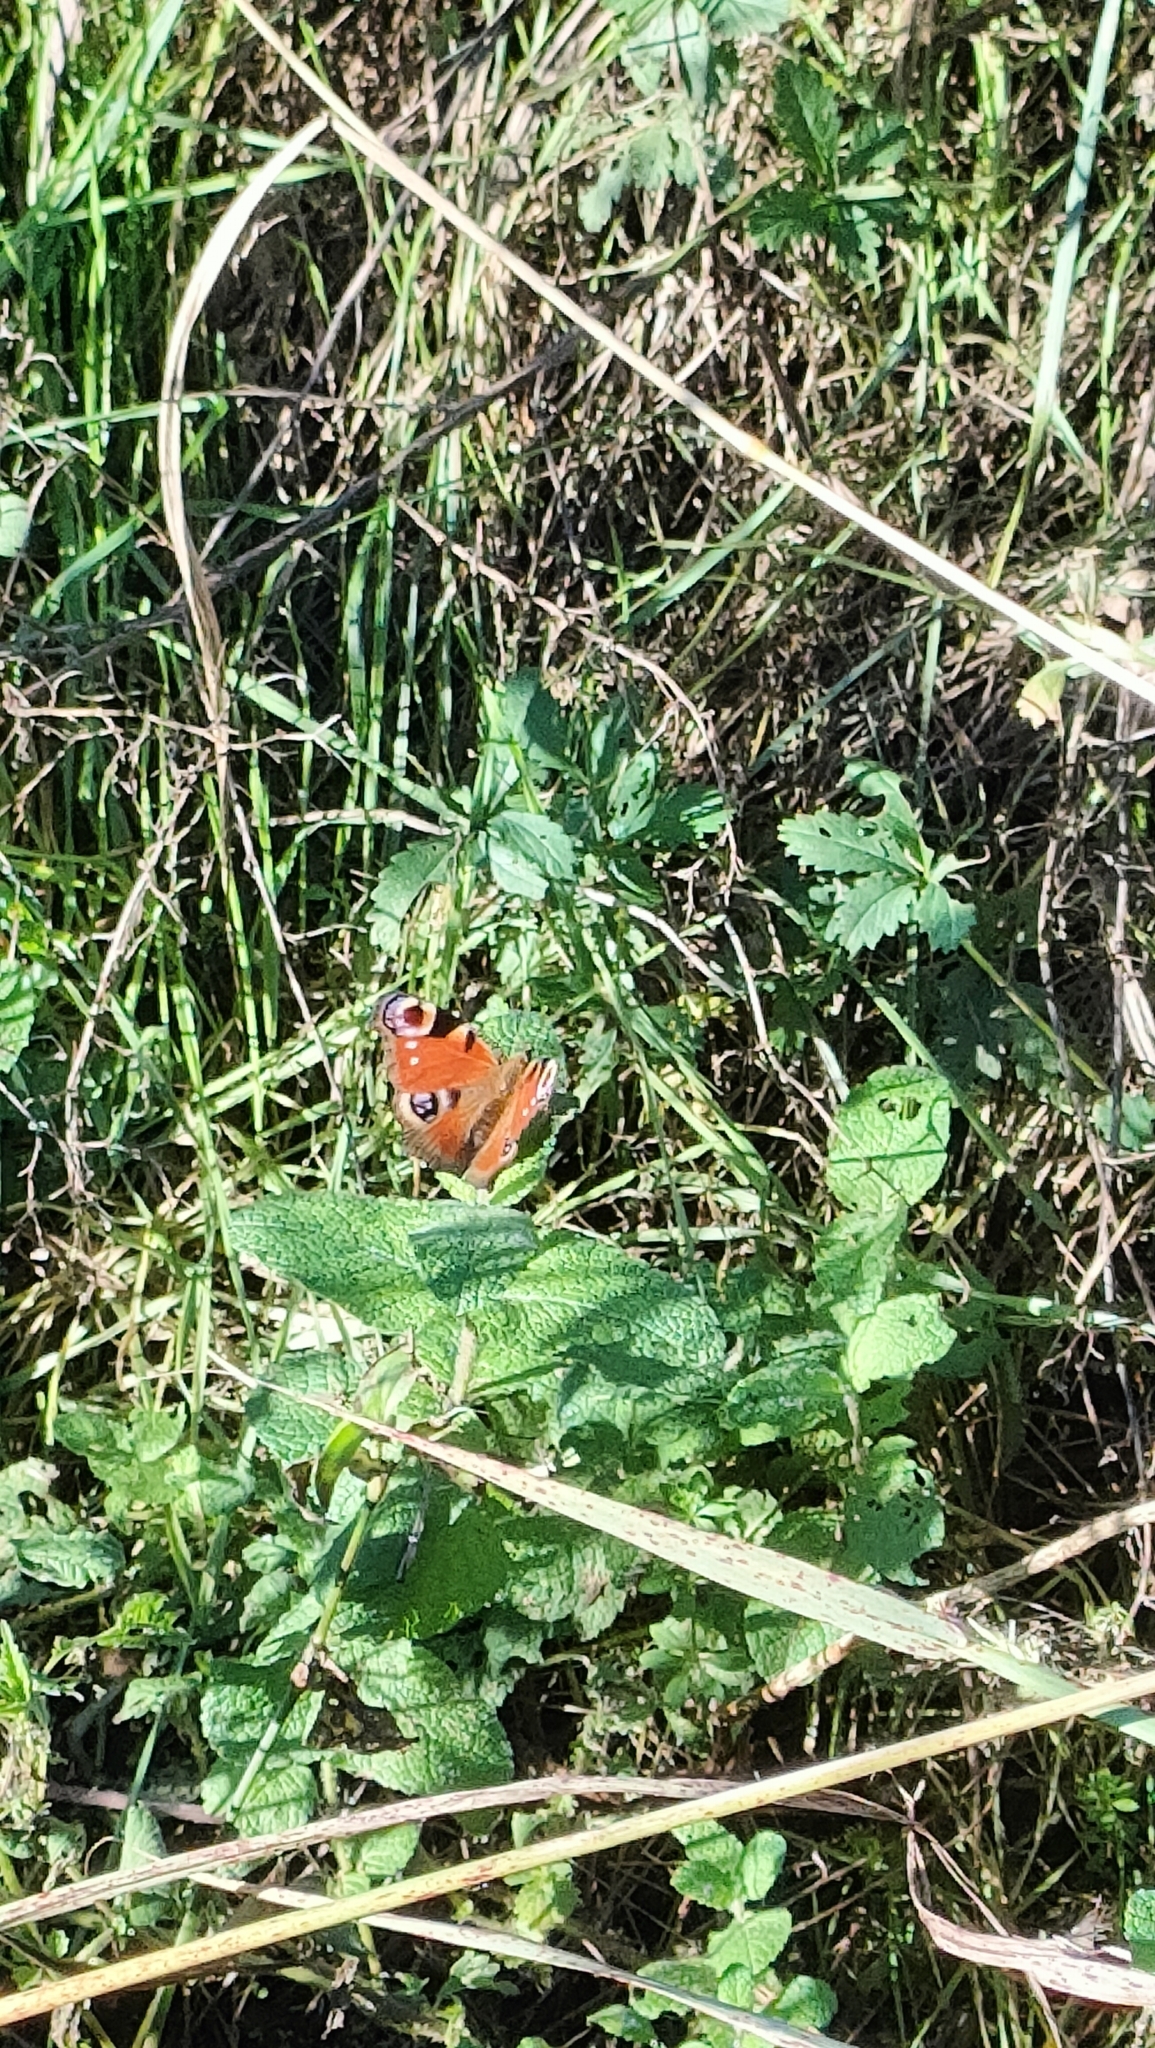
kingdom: Animalia
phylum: Arthropoda
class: Insecta
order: Lepidoptera
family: Nymphalidae
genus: Aglais
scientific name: Aglais io
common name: Peacock
